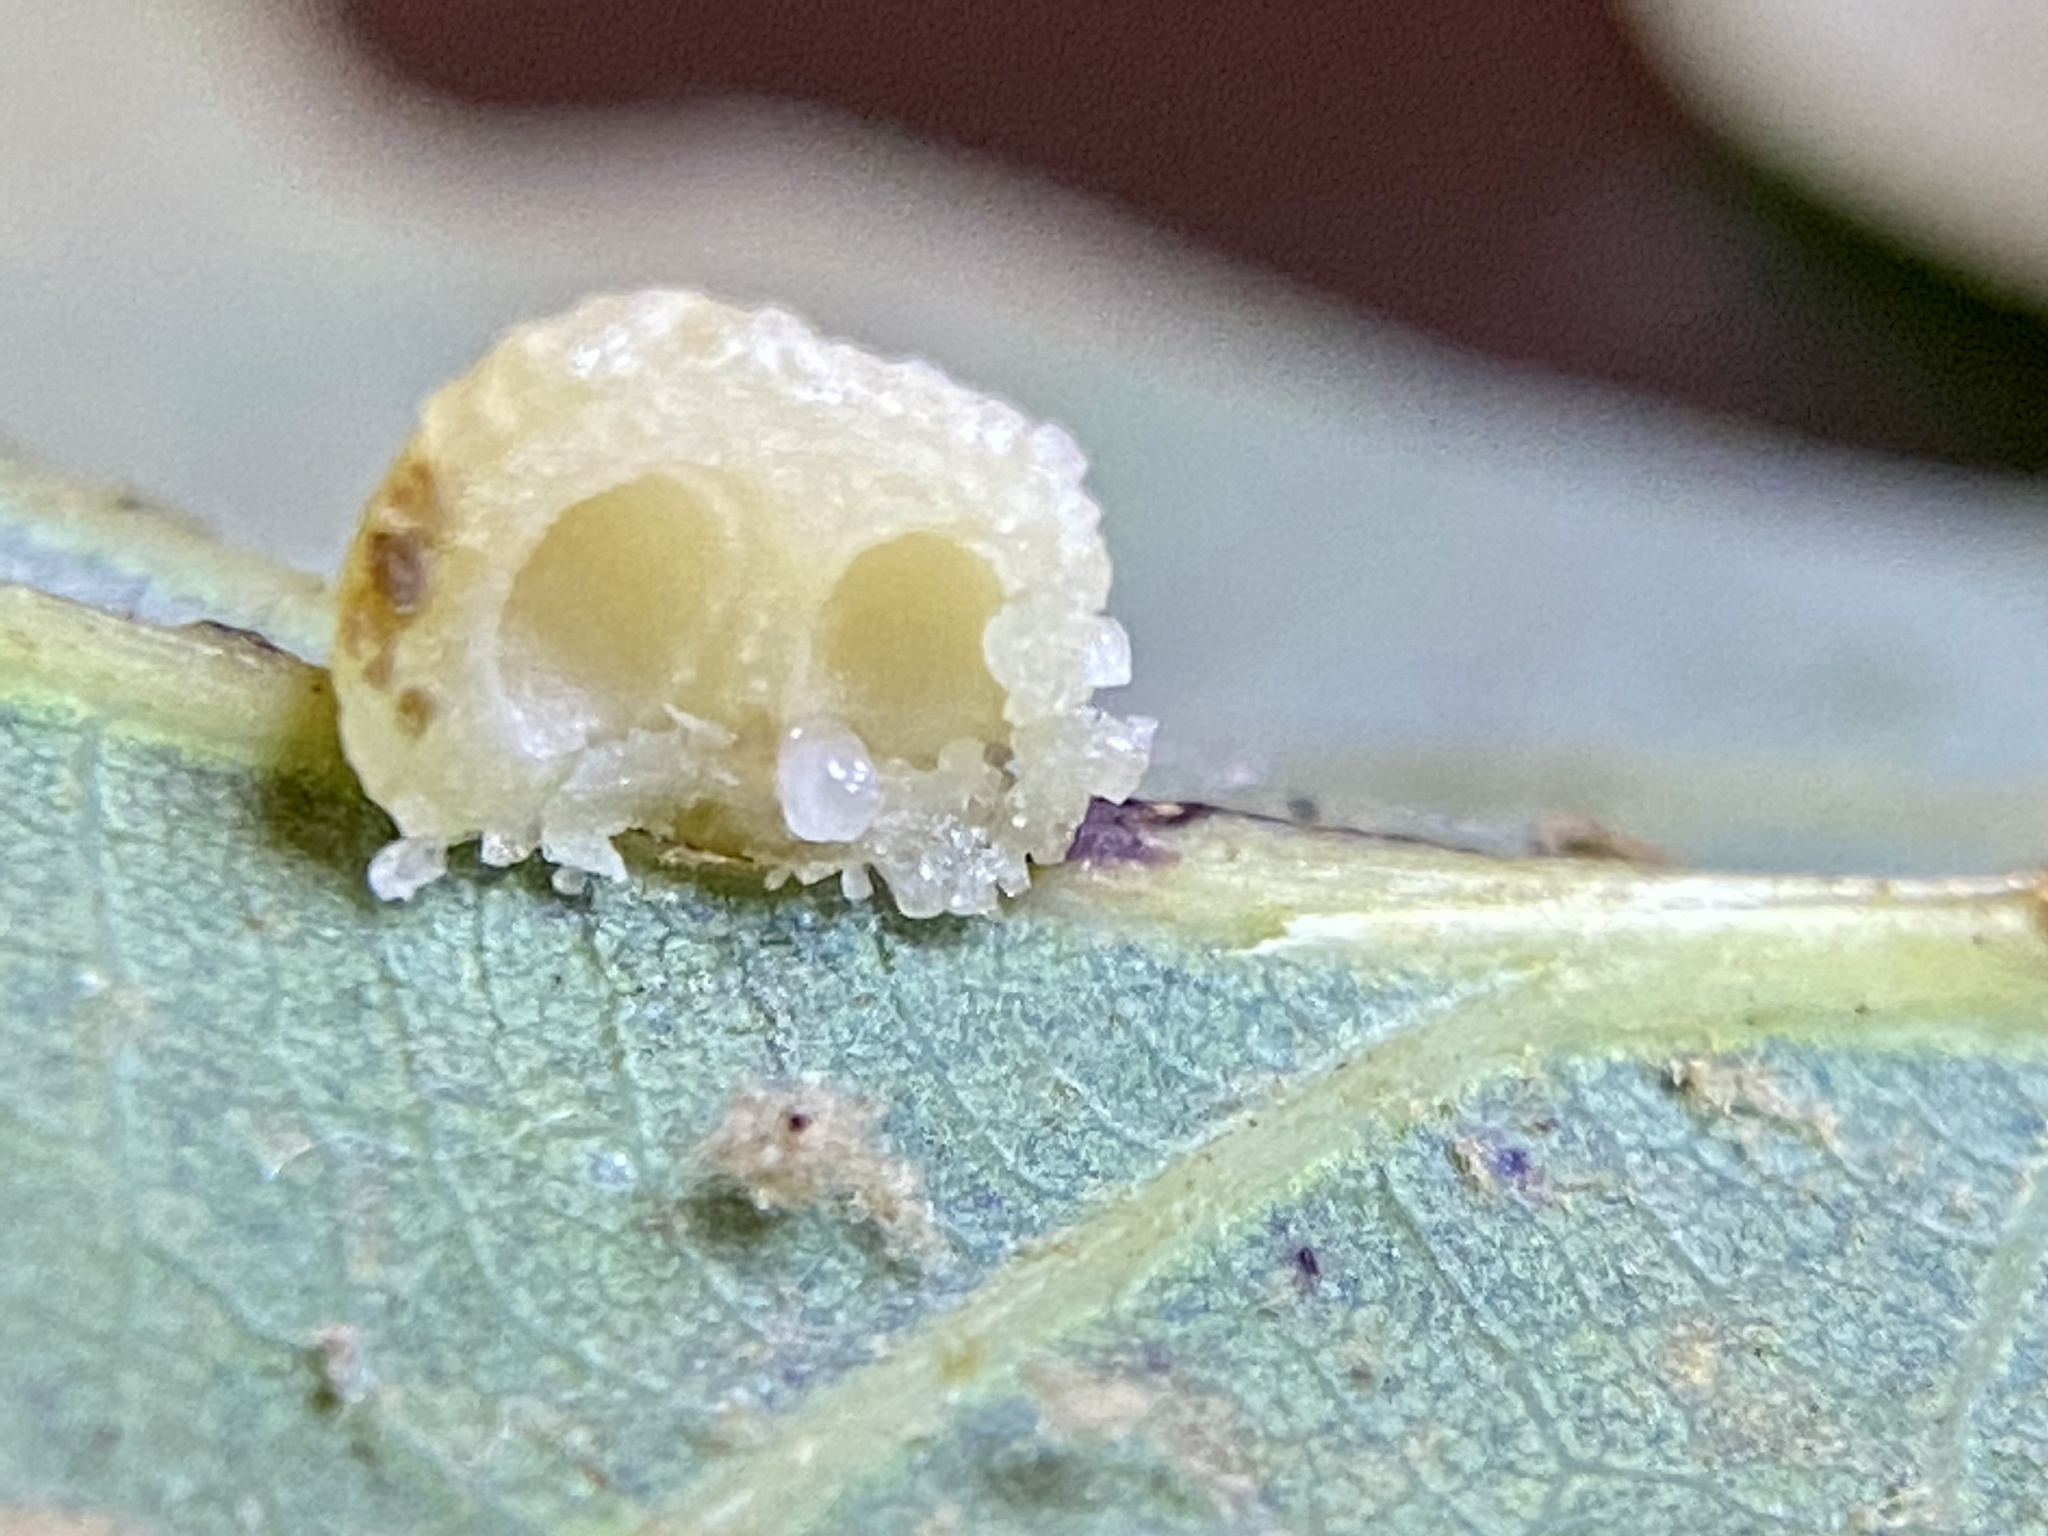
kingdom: Animalia
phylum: Arthropoda
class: Insecta
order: Hymenoptera
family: Cynipidae
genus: Acraspis
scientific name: Acraspis
